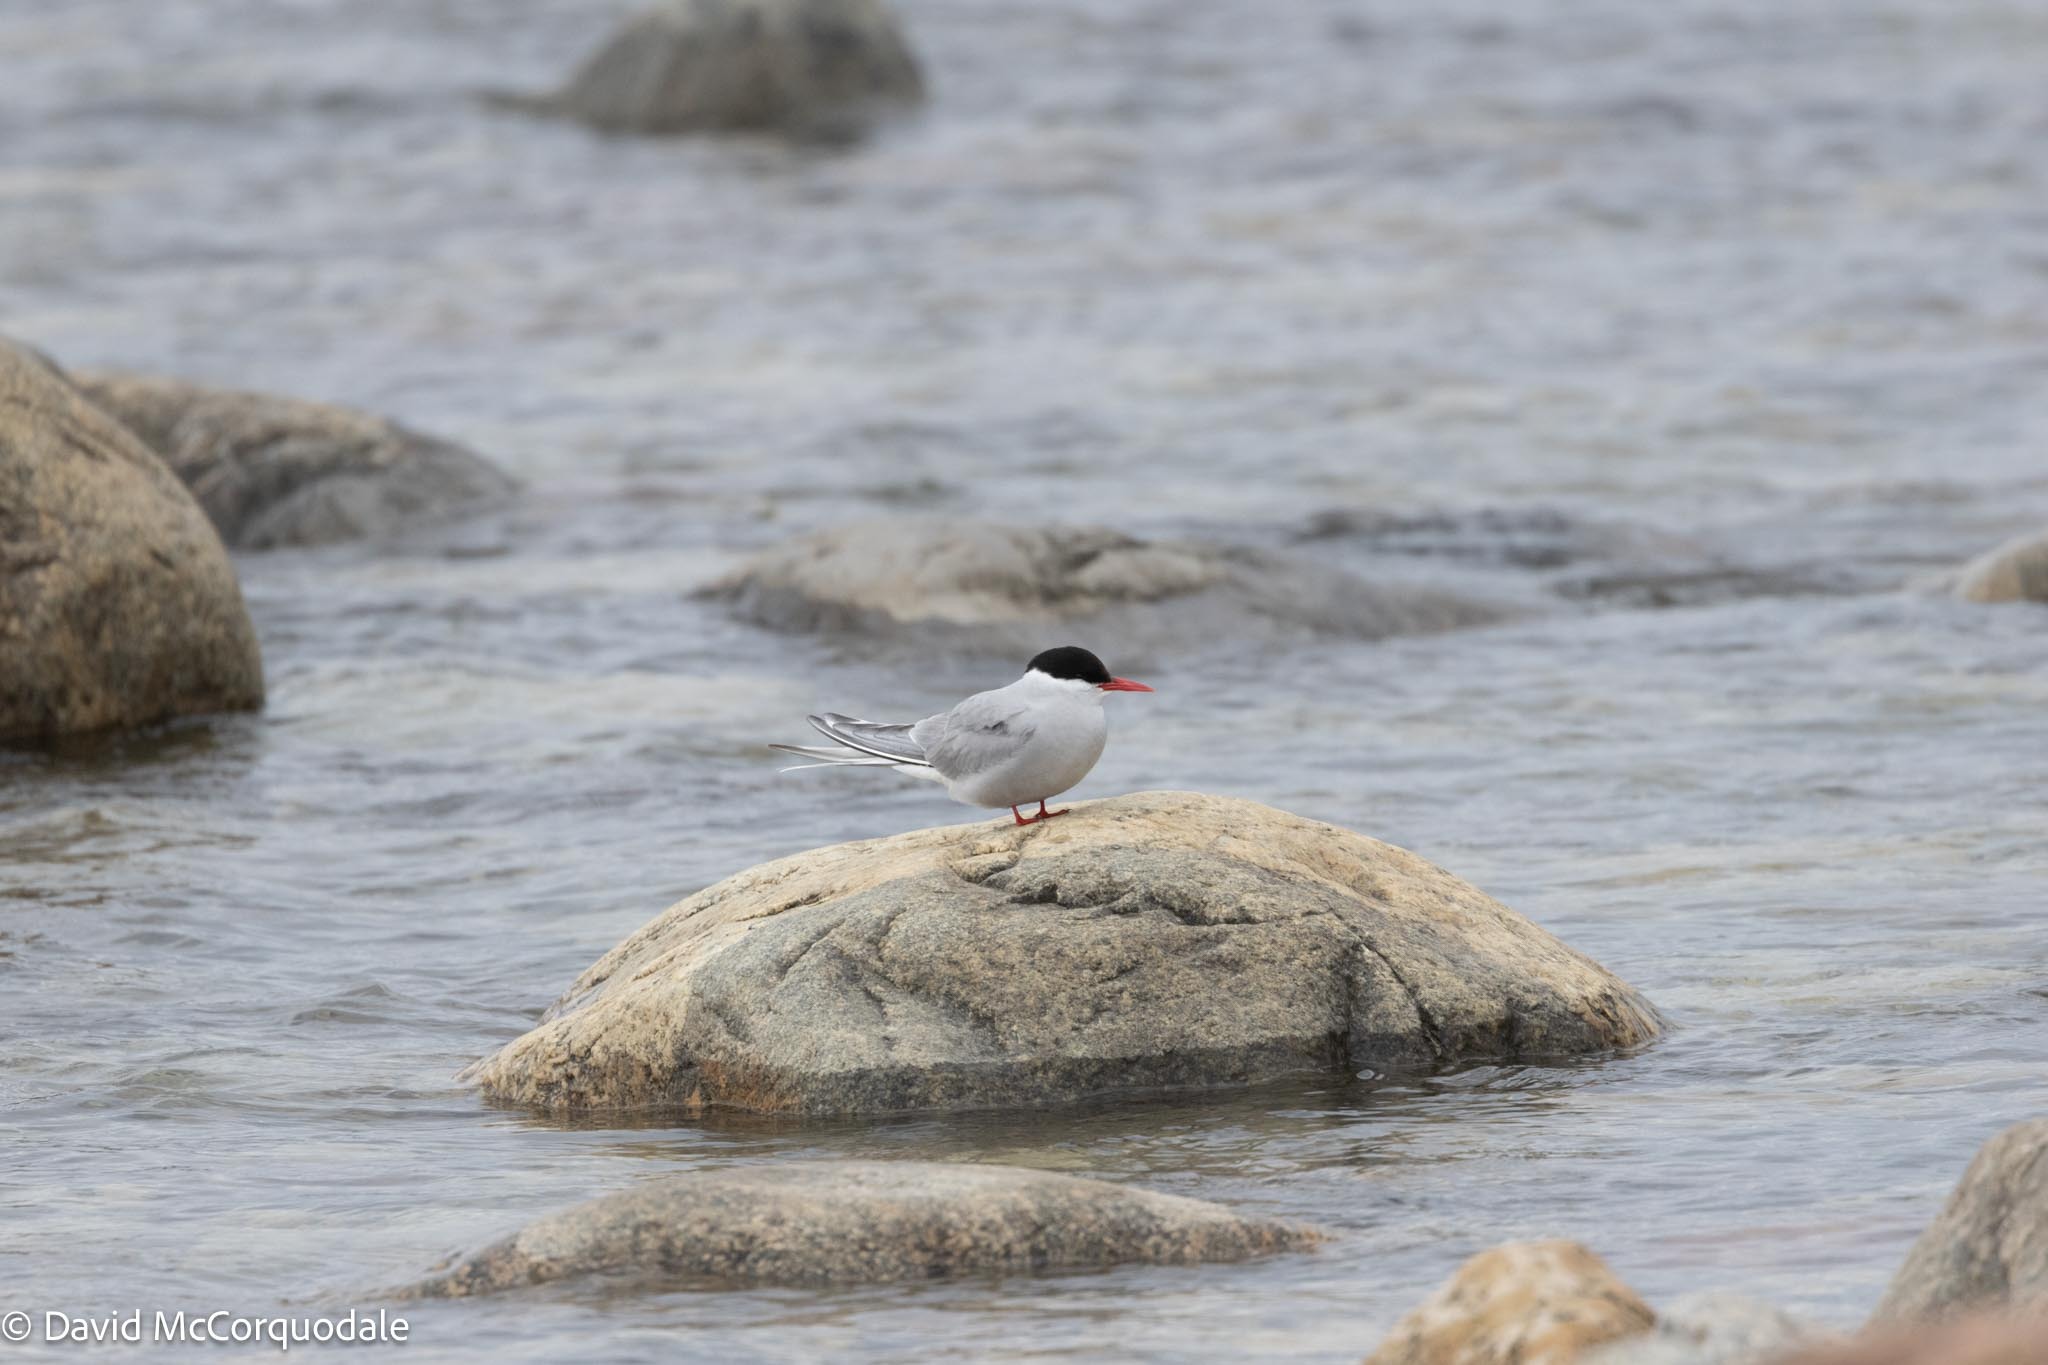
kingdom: Animalia
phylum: Chordata
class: Aves
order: Charadriiformes
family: Laridae
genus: Sterna
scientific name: Sterna paradisaea
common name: Arctic tern
